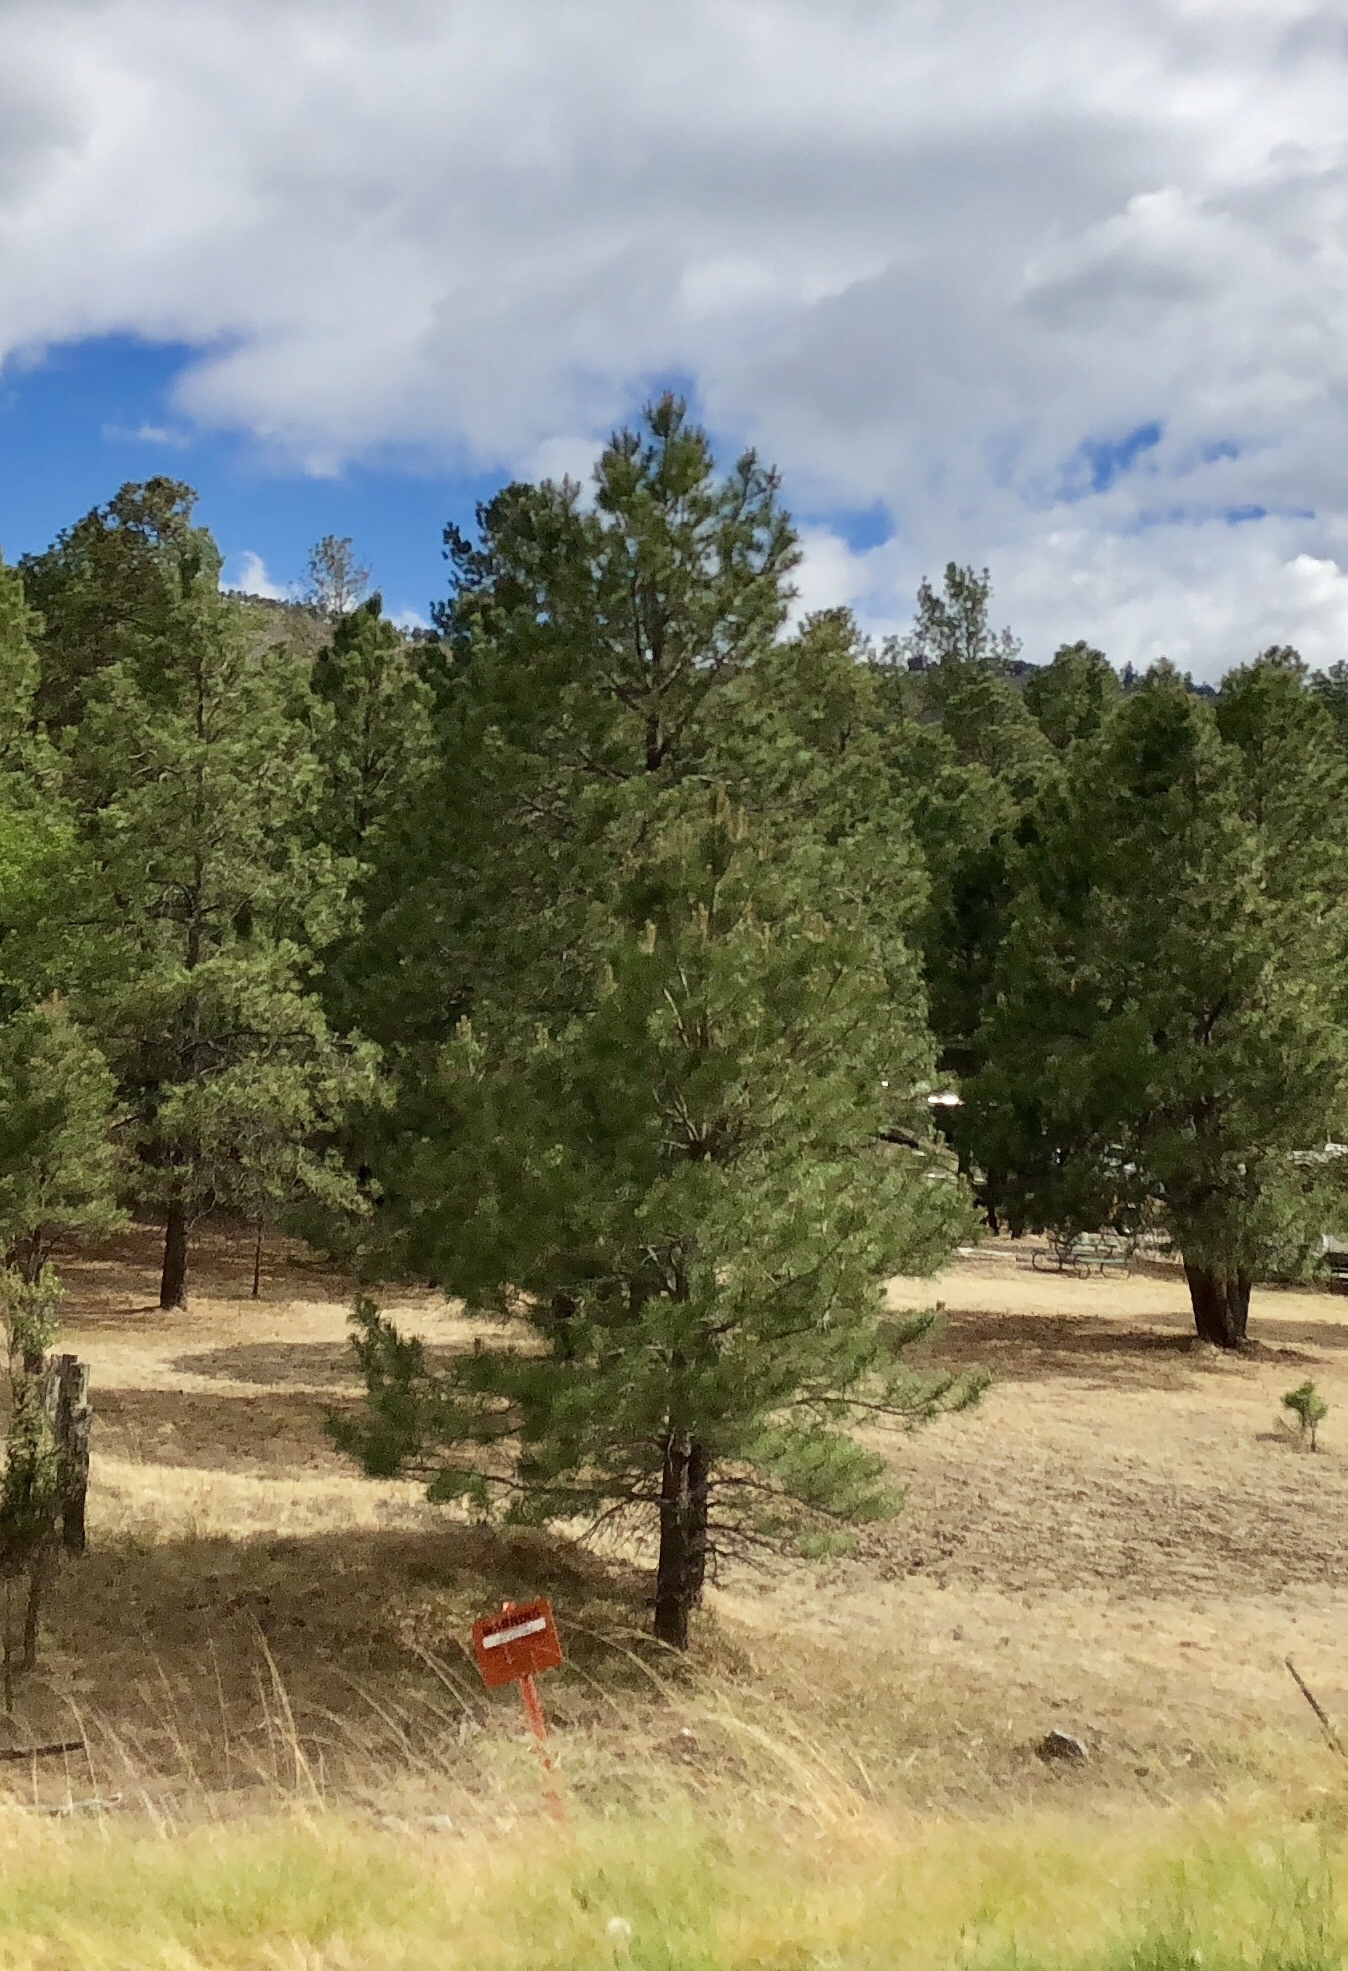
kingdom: Plantae
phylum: Tracheophyta
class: Pinopsida
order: Pinales
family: Pinaceae
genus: Pinus
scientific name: Pinus ponderosa
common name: Western yellow-pine
